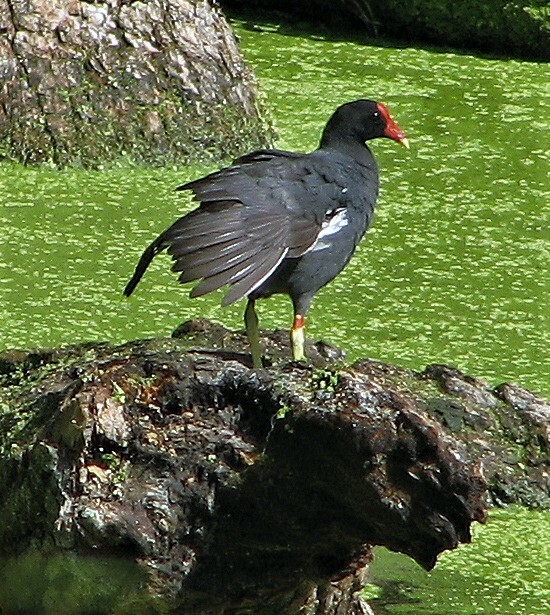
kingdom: Animalia
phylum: Chordata
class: Aves
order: Gruiformes
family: Rallidae
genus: Gallinula
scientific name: Gallinula chloropus
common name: Common moorhen
